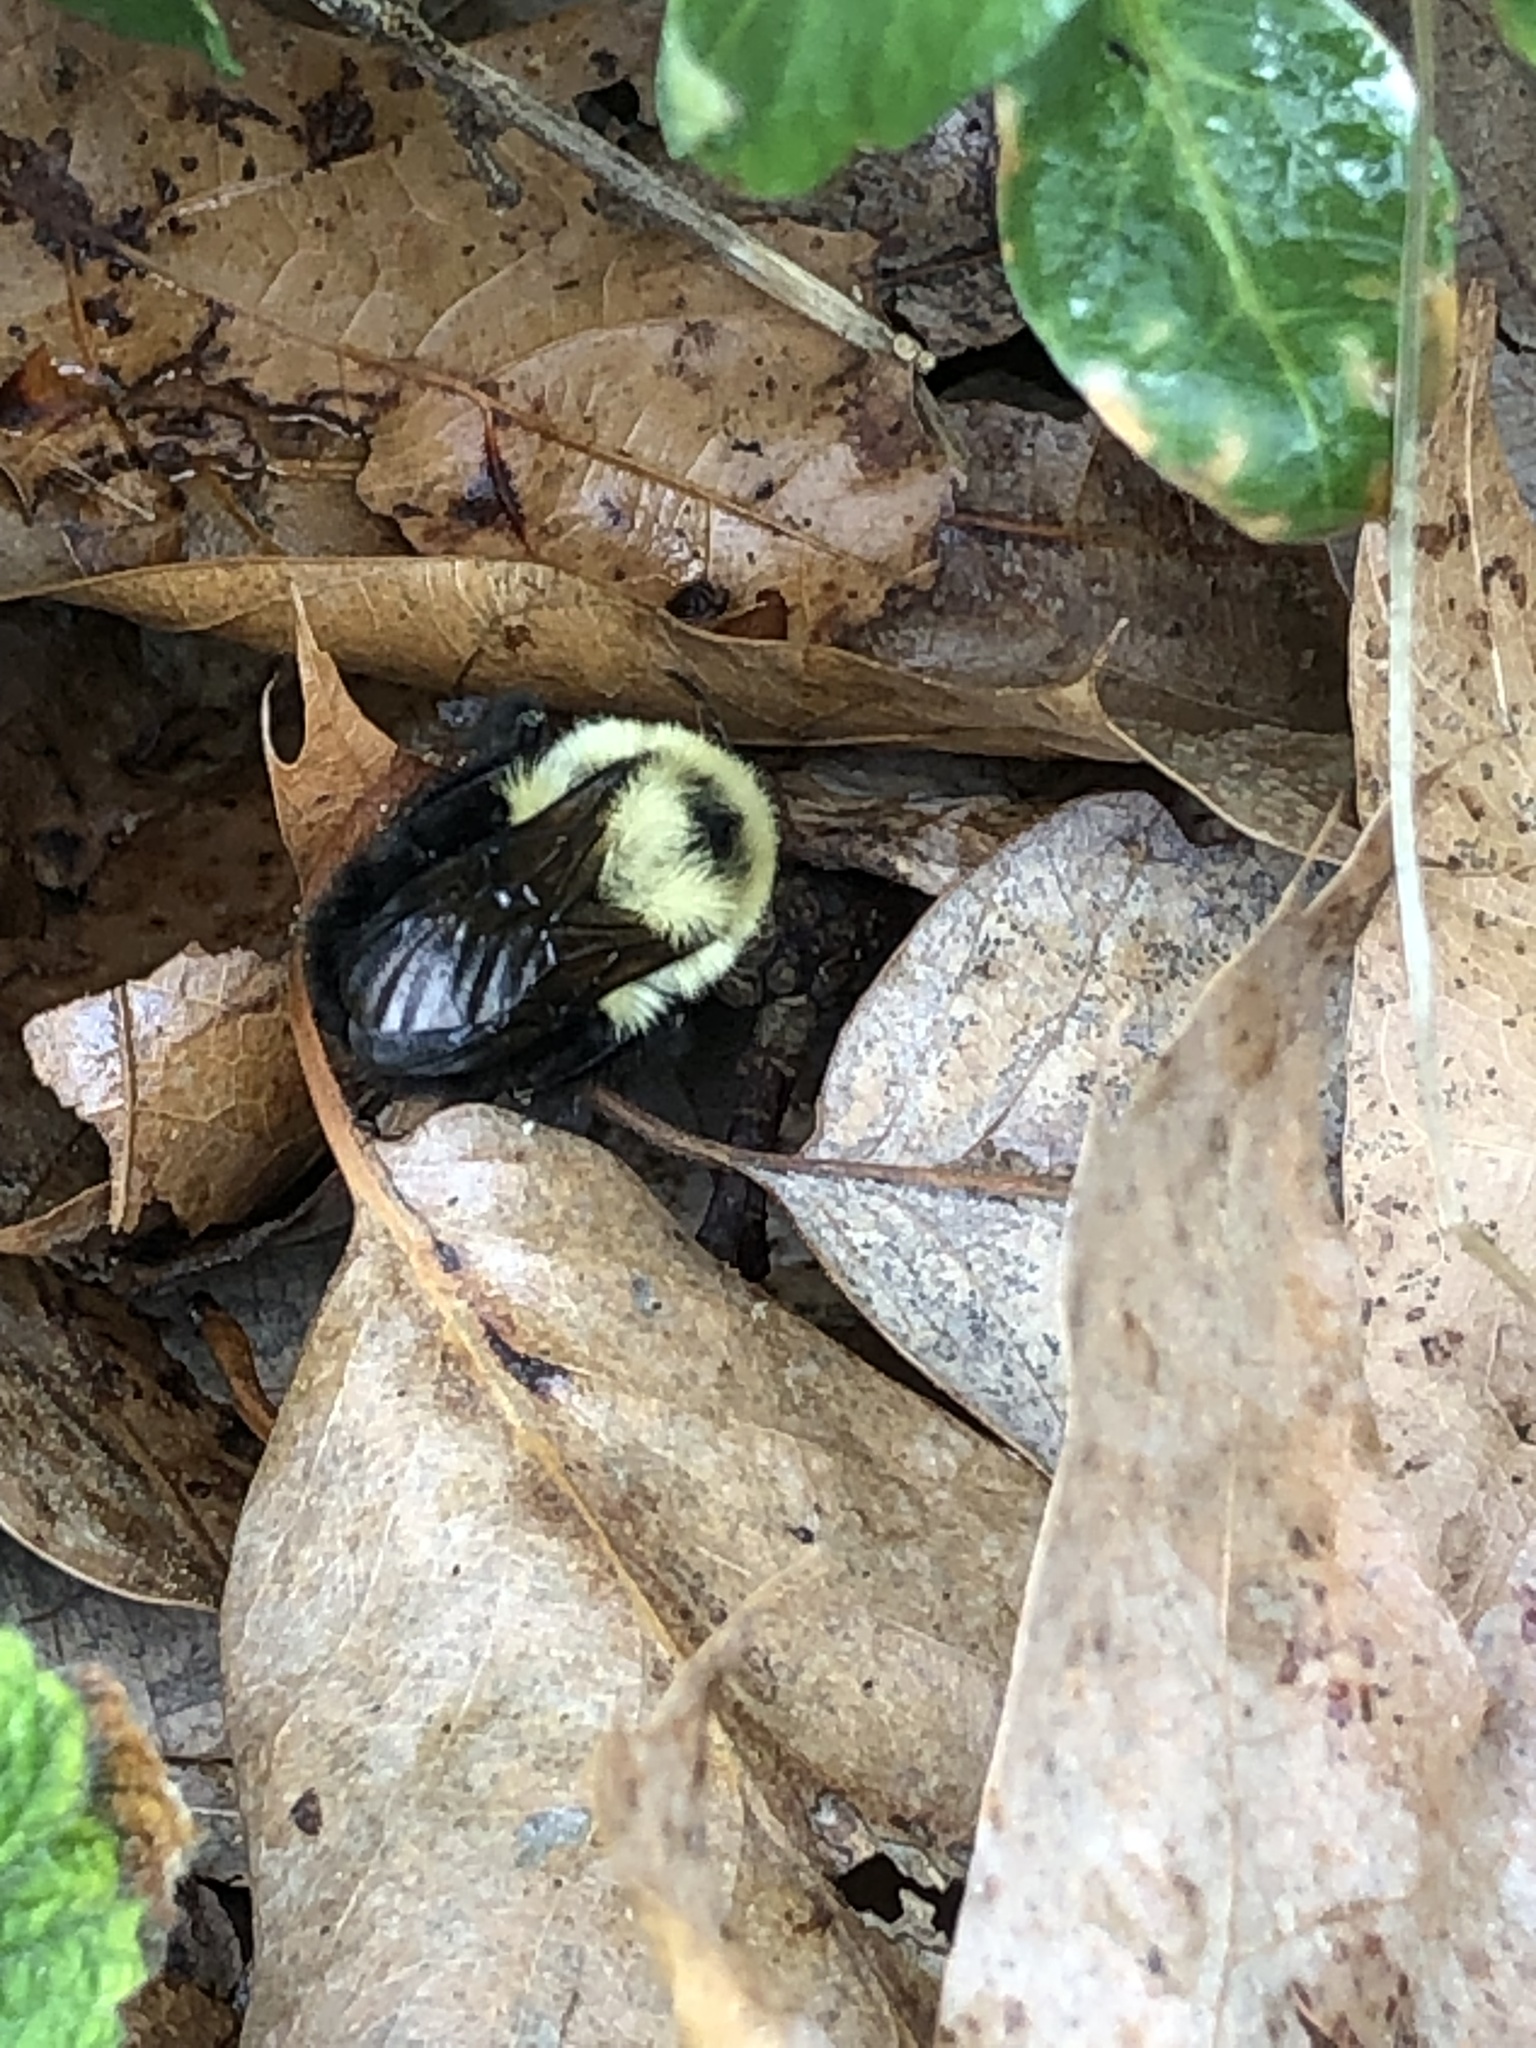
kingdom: Animalia
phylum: Arthropoda
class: Insecta
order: Hymenoptera
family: Apidae
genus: Bombus
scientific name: Bombus bimaculatus
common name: Two-spotted bumble bee
